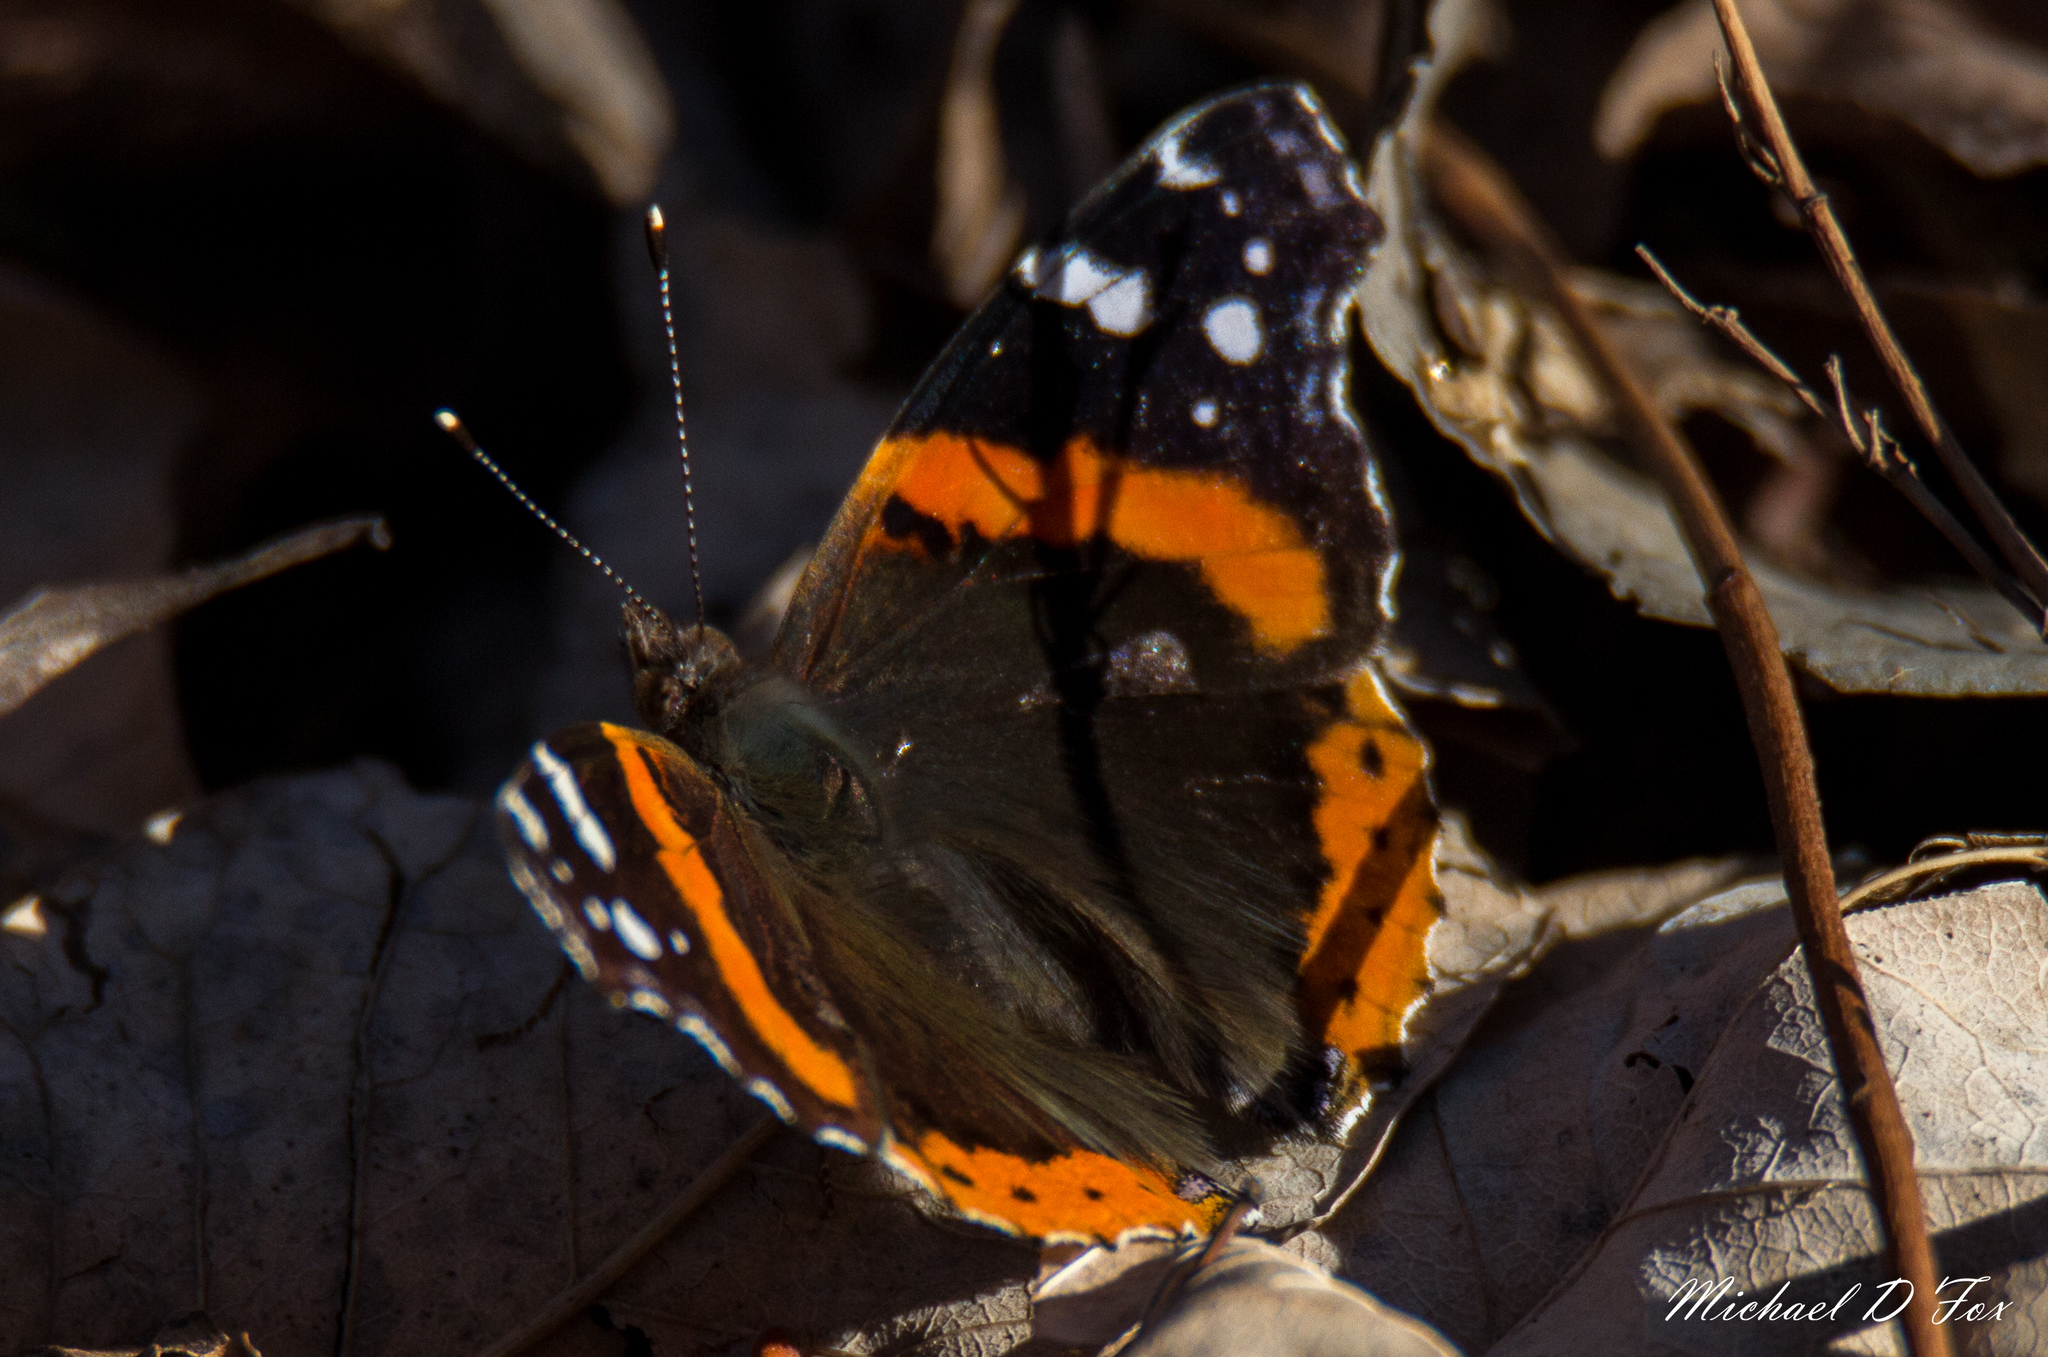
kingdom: Animalia
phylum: Arthropoda
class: Insecta
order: Lepidoptera
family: Nymphalidae
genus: Vanessa
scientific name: Vanessa atalanta
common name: Red admiral
